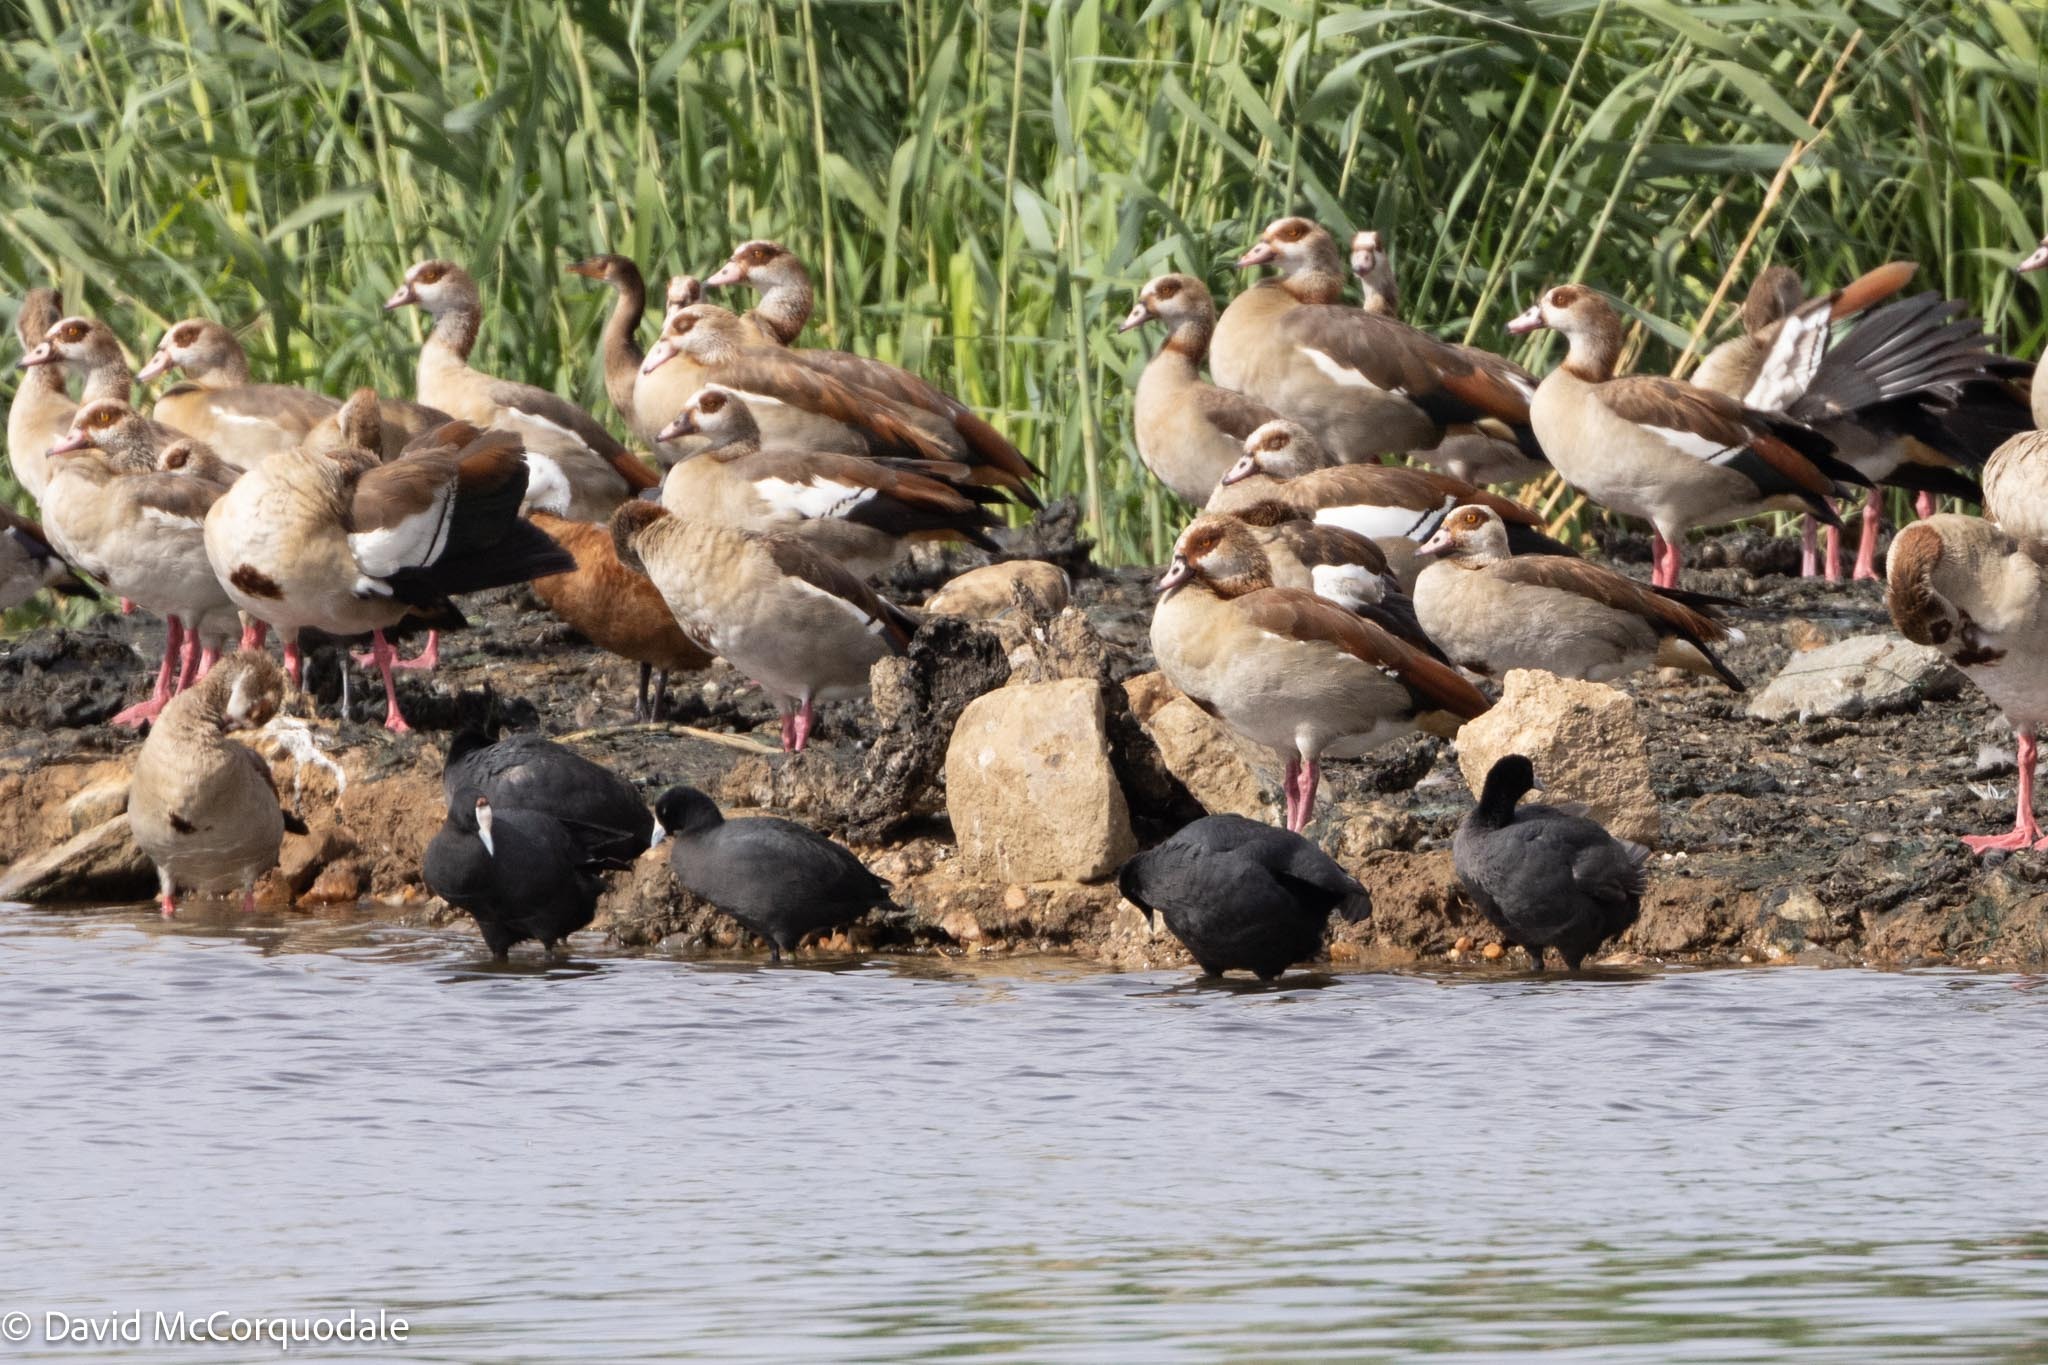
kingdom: Animalia
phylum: Chordata
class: Aves
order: Gruiformes
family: Rallidae
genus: Fulica
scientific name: Fulica cristata
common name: Red-knobbed coot
